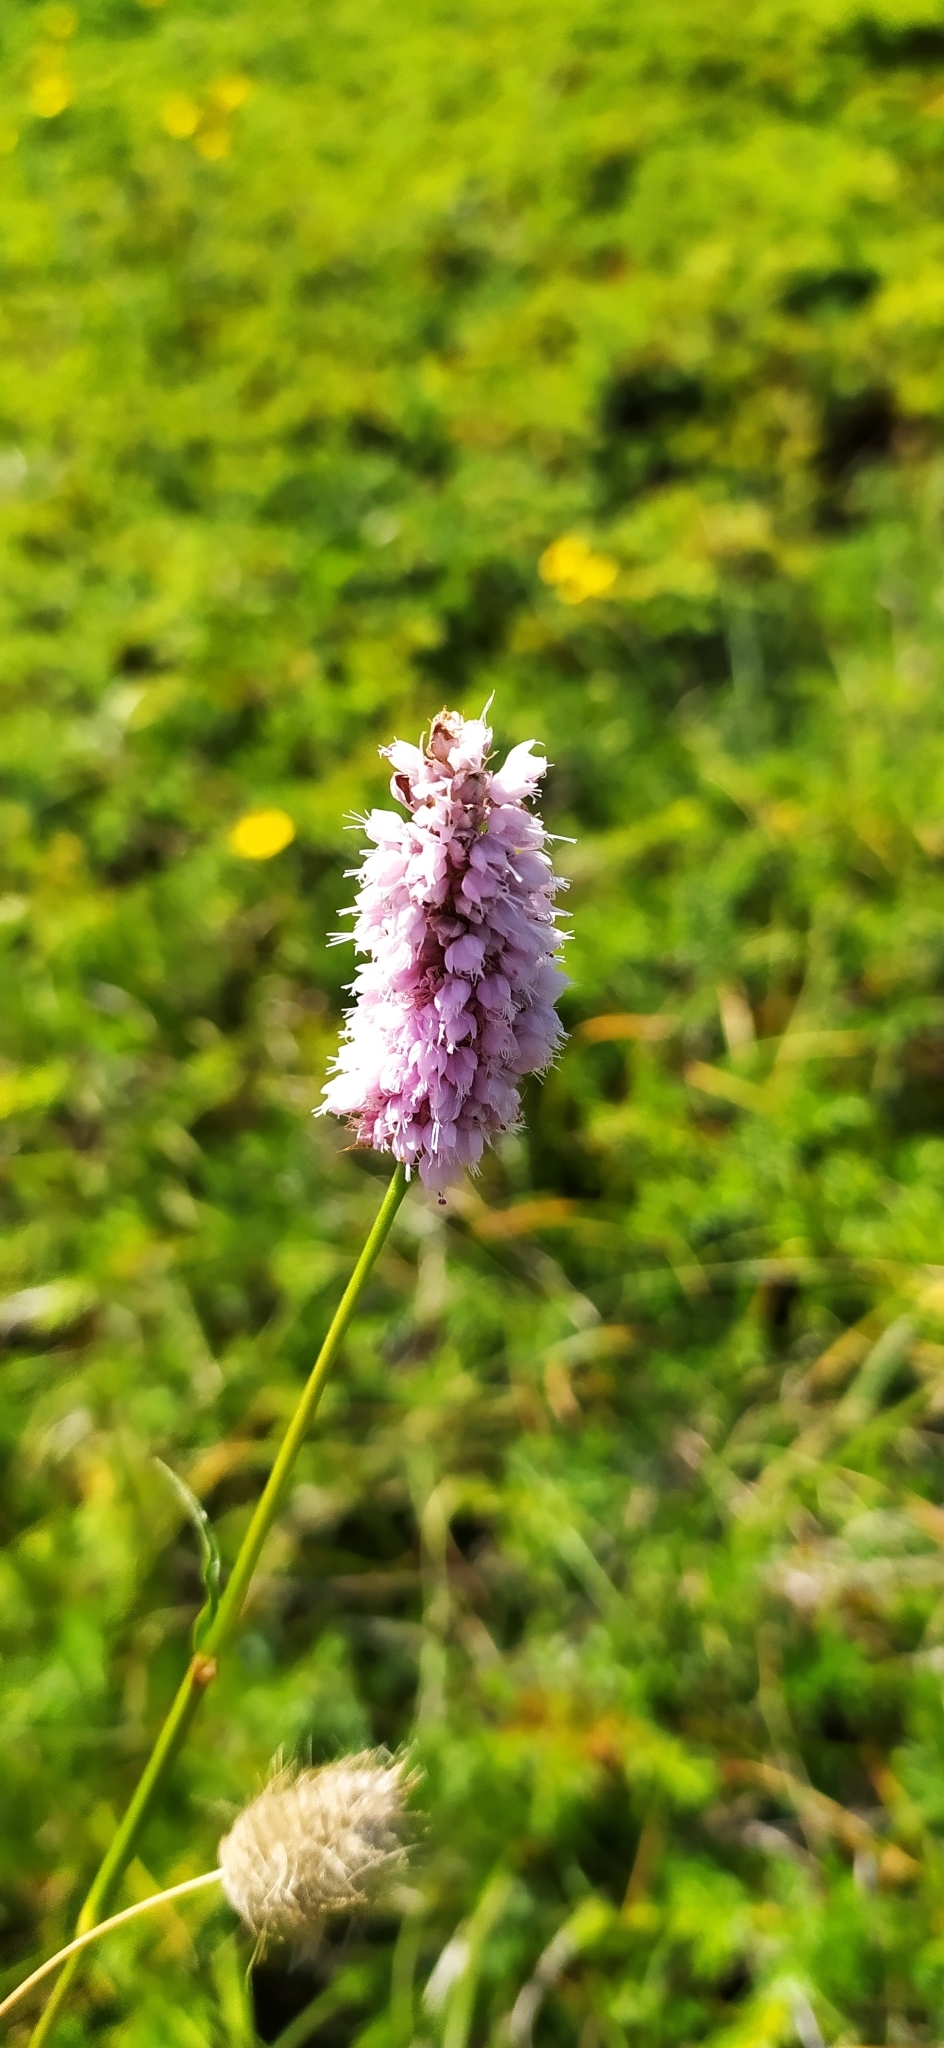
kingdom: Plantae
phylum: Tracheophyta
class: Magnoliopsida
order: Caryophyllales
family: Polygonaceae
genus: Bistorta
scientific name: Bistorta officinalis
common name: Common bistort
